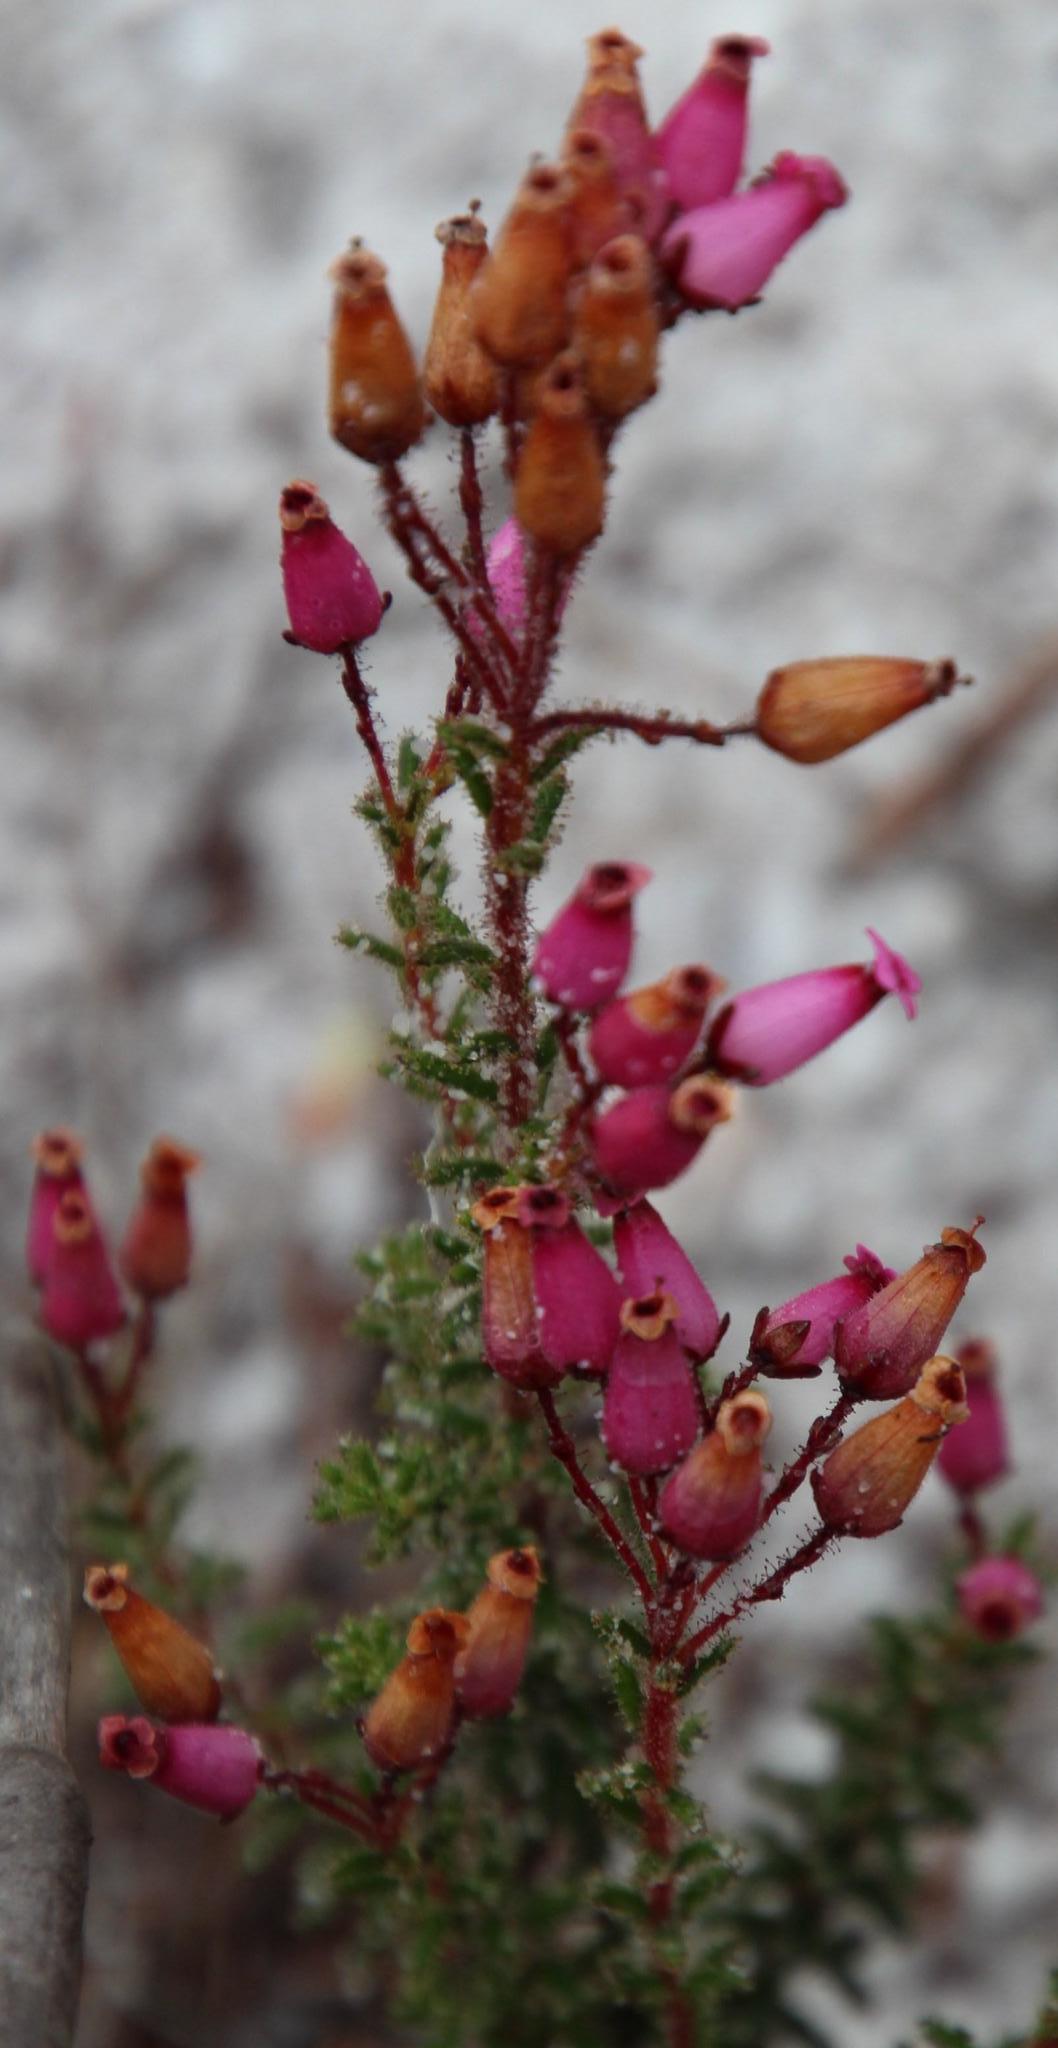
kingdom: Plantae
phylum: Tracheophyta
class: Magnoliopsida
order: Ericales
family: Ericaceae
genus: Erica
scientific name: Erica glutinosa
